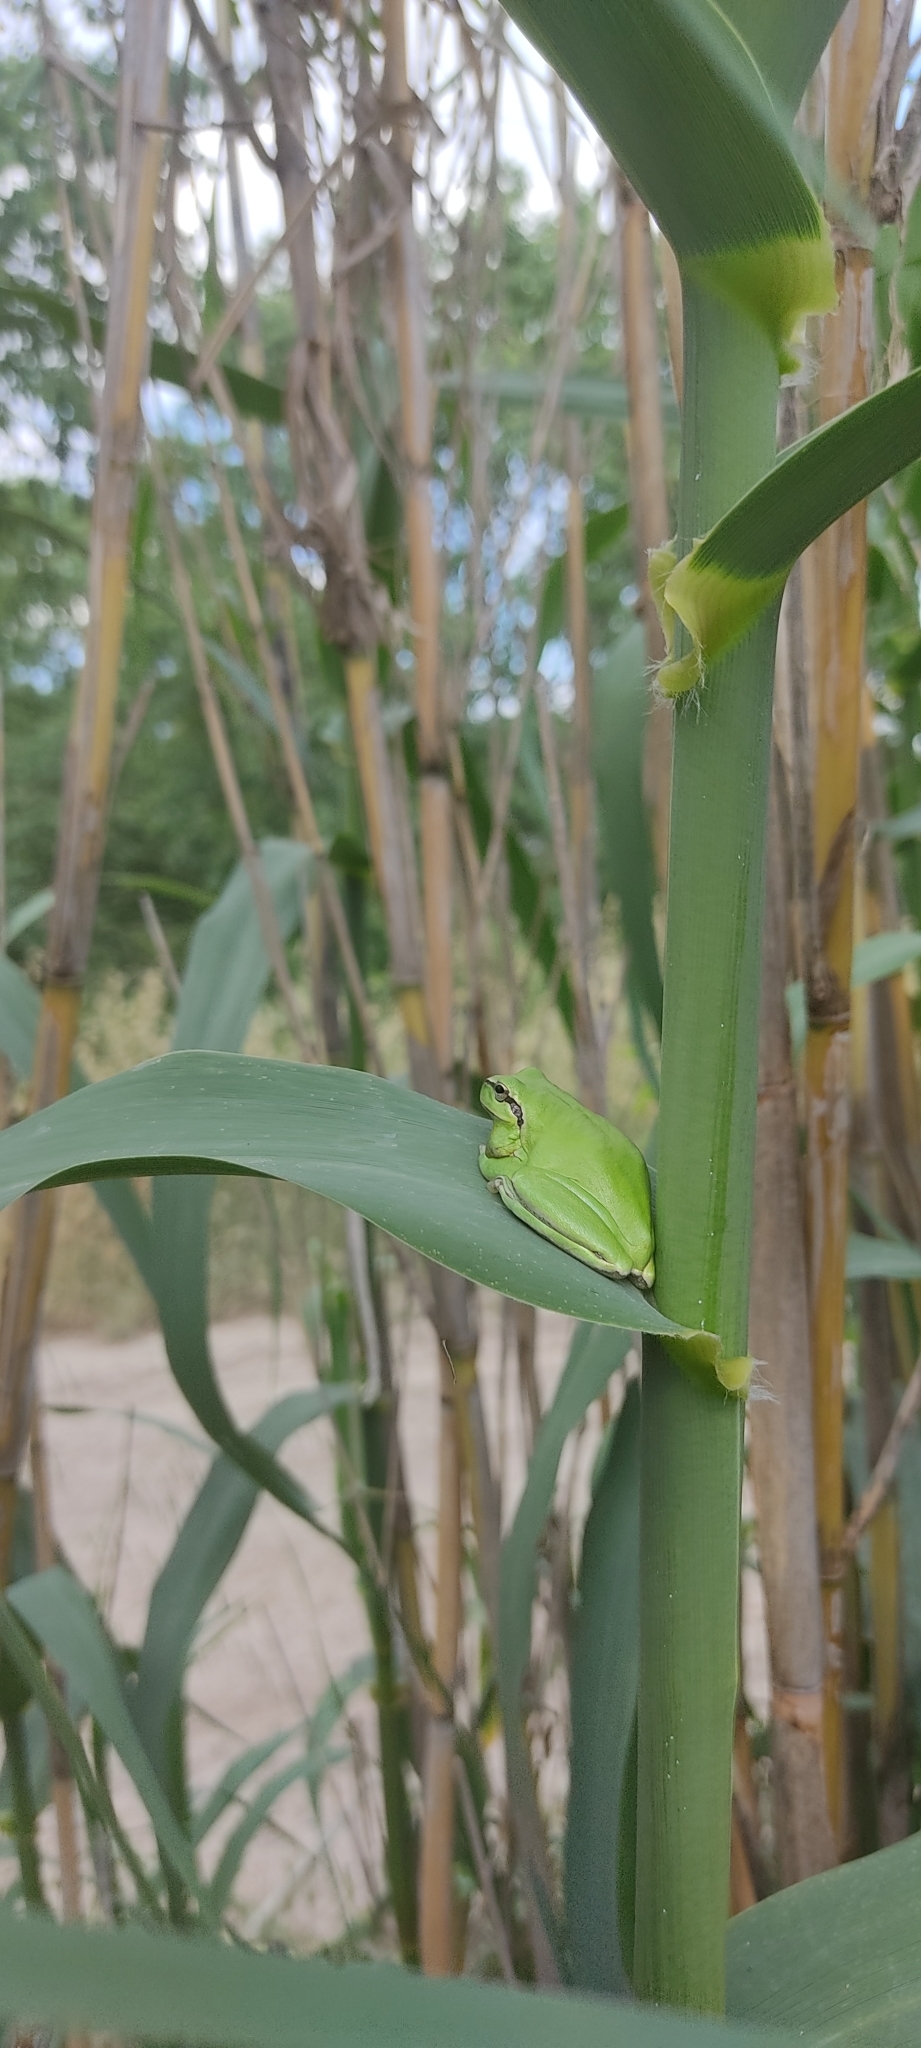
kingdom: Animalia
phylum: Chordata
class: Amphibia
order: Anura
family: Hylidae
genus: Hyla
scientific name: Hyla meridionalis
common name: Stripeless tree frog
